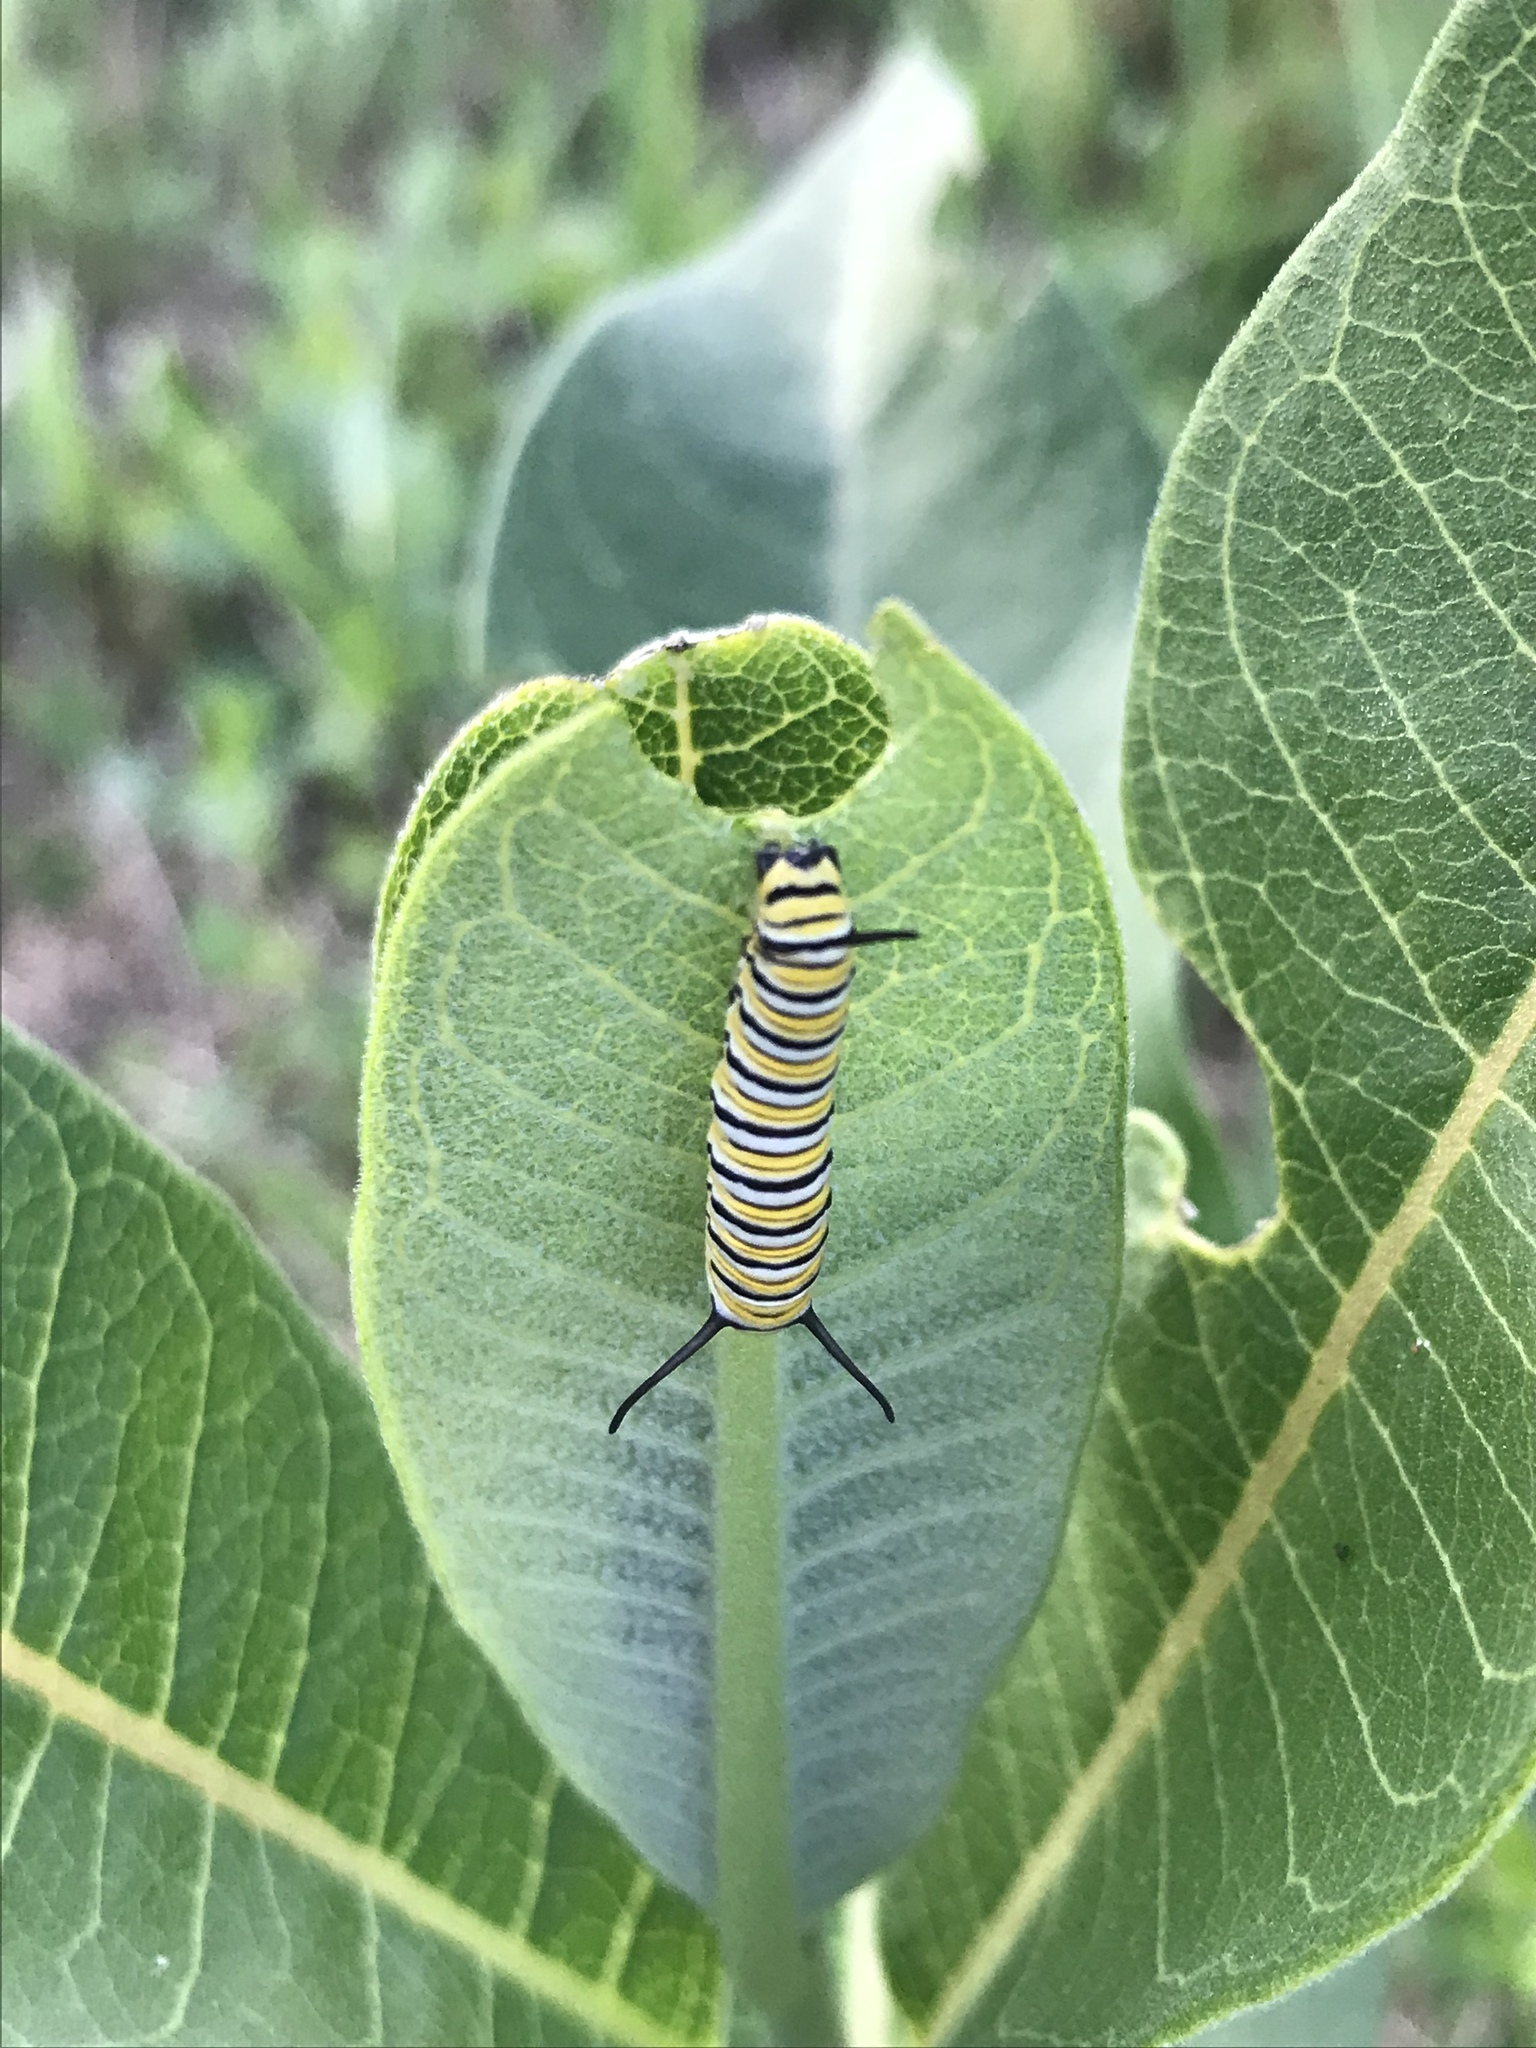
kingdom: Animalia
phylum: Arthropoda
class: Insecta
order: Lepidoptera
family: Nymphalidae
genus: Danaus
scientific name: Danaus plexippus
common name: Monarch
